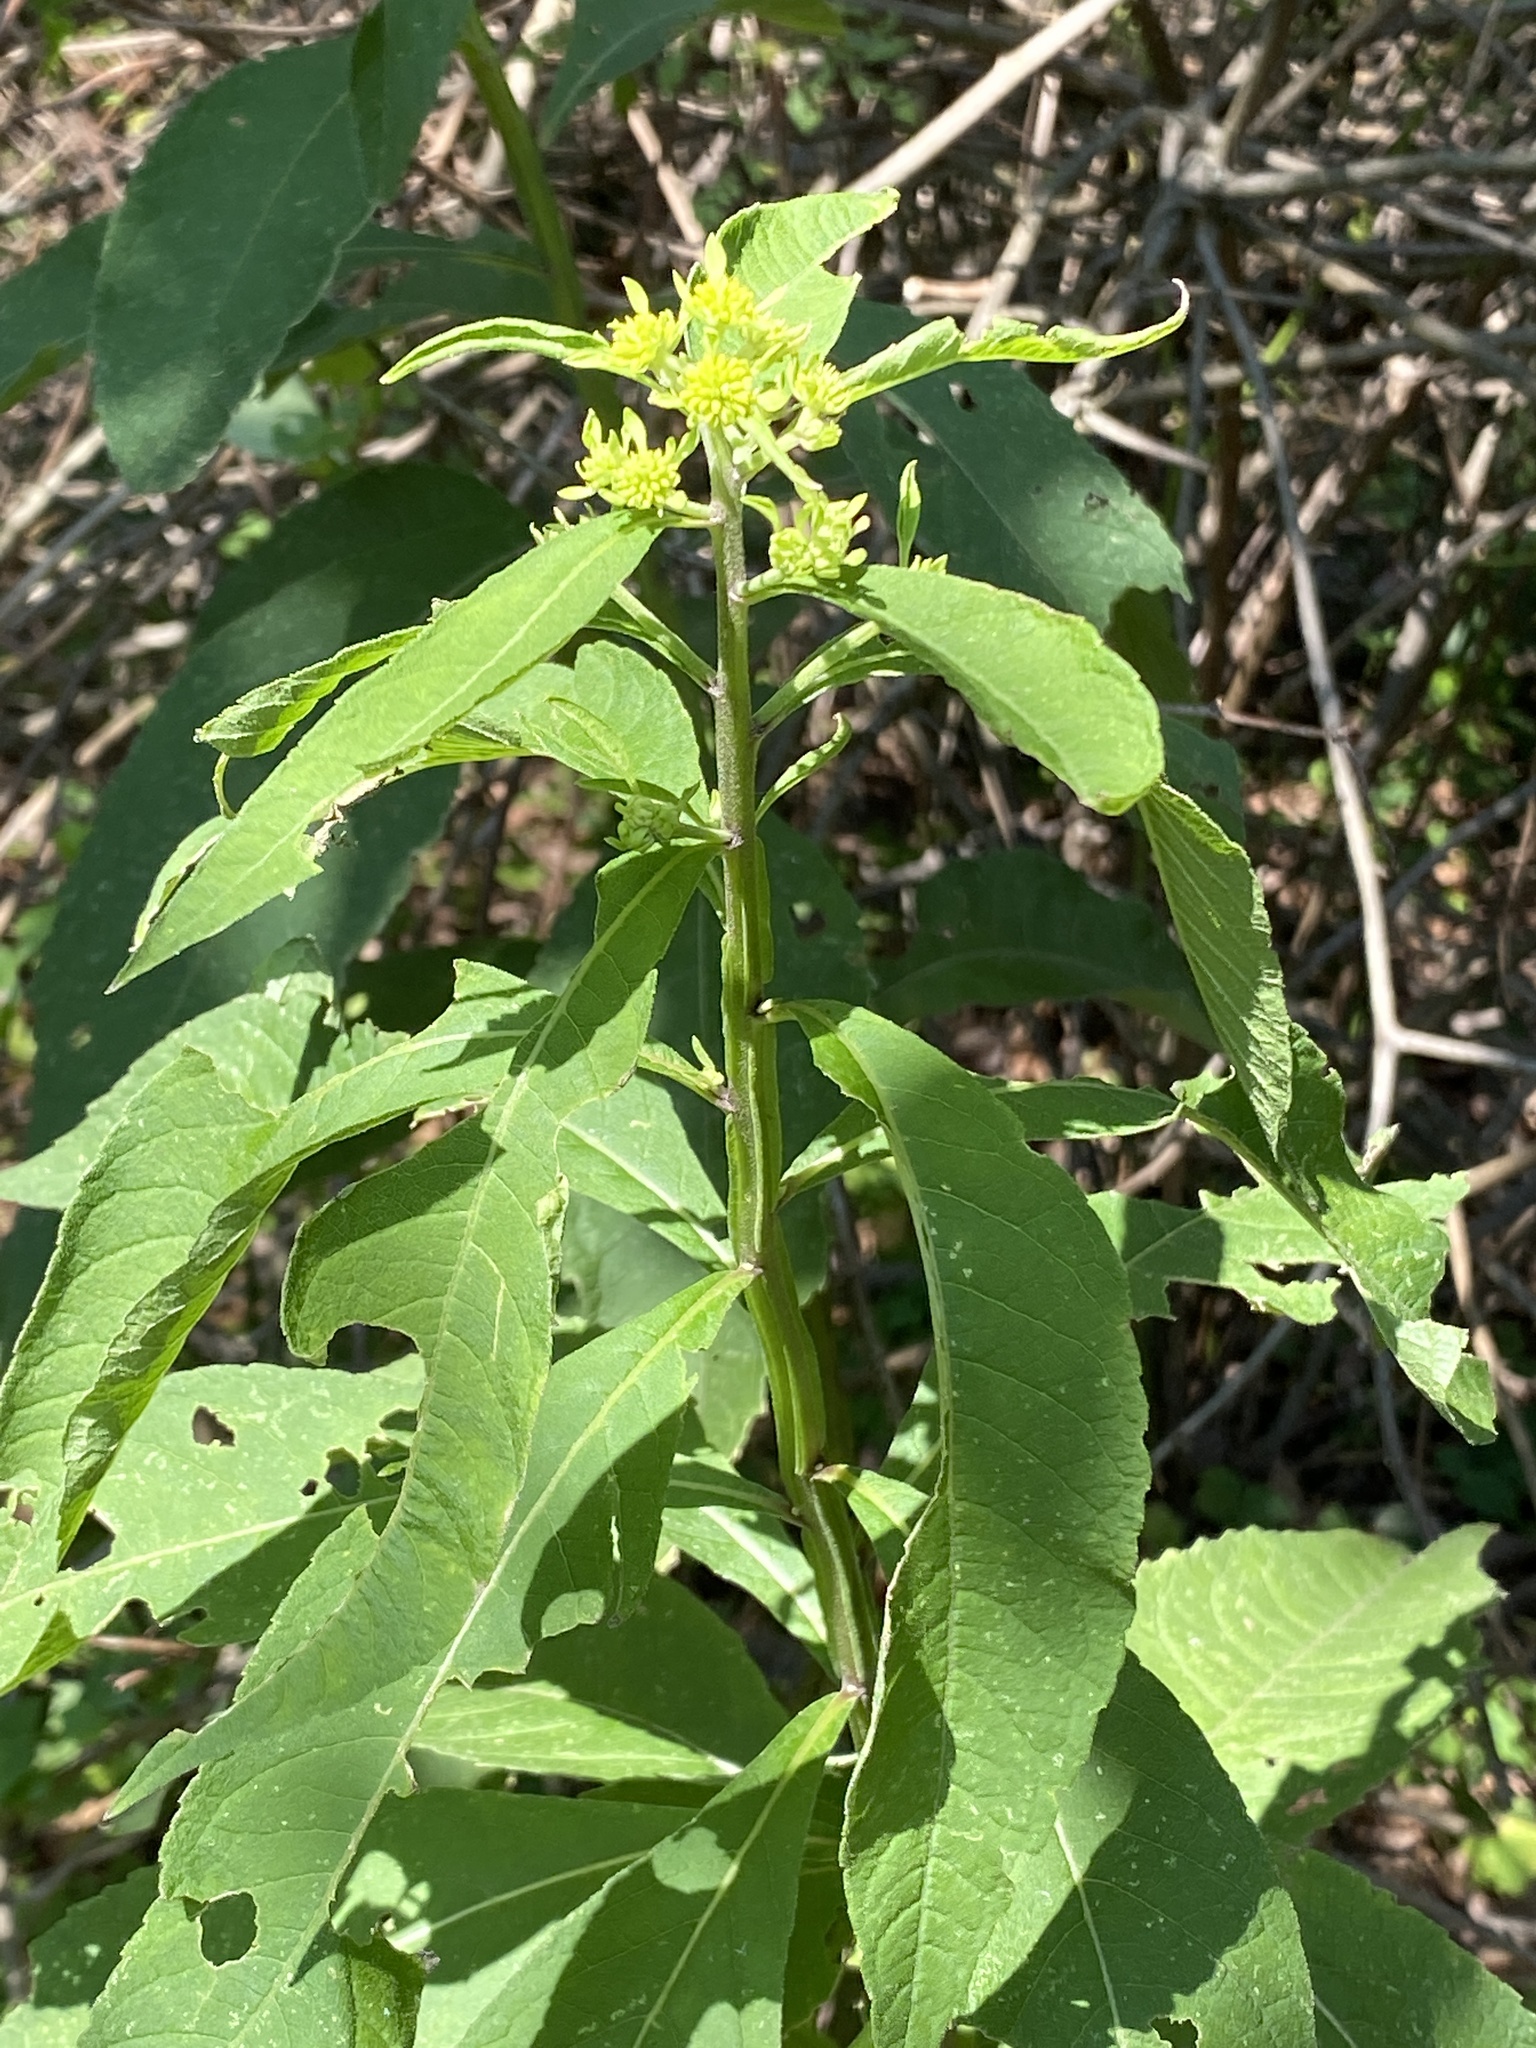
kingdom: Plantae
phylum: Tracheophyta
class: Magnoliopsida
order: Asterales
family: Asteraceae
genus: Verbesina
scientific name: Verbesina alternifolia
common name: Wingstem
